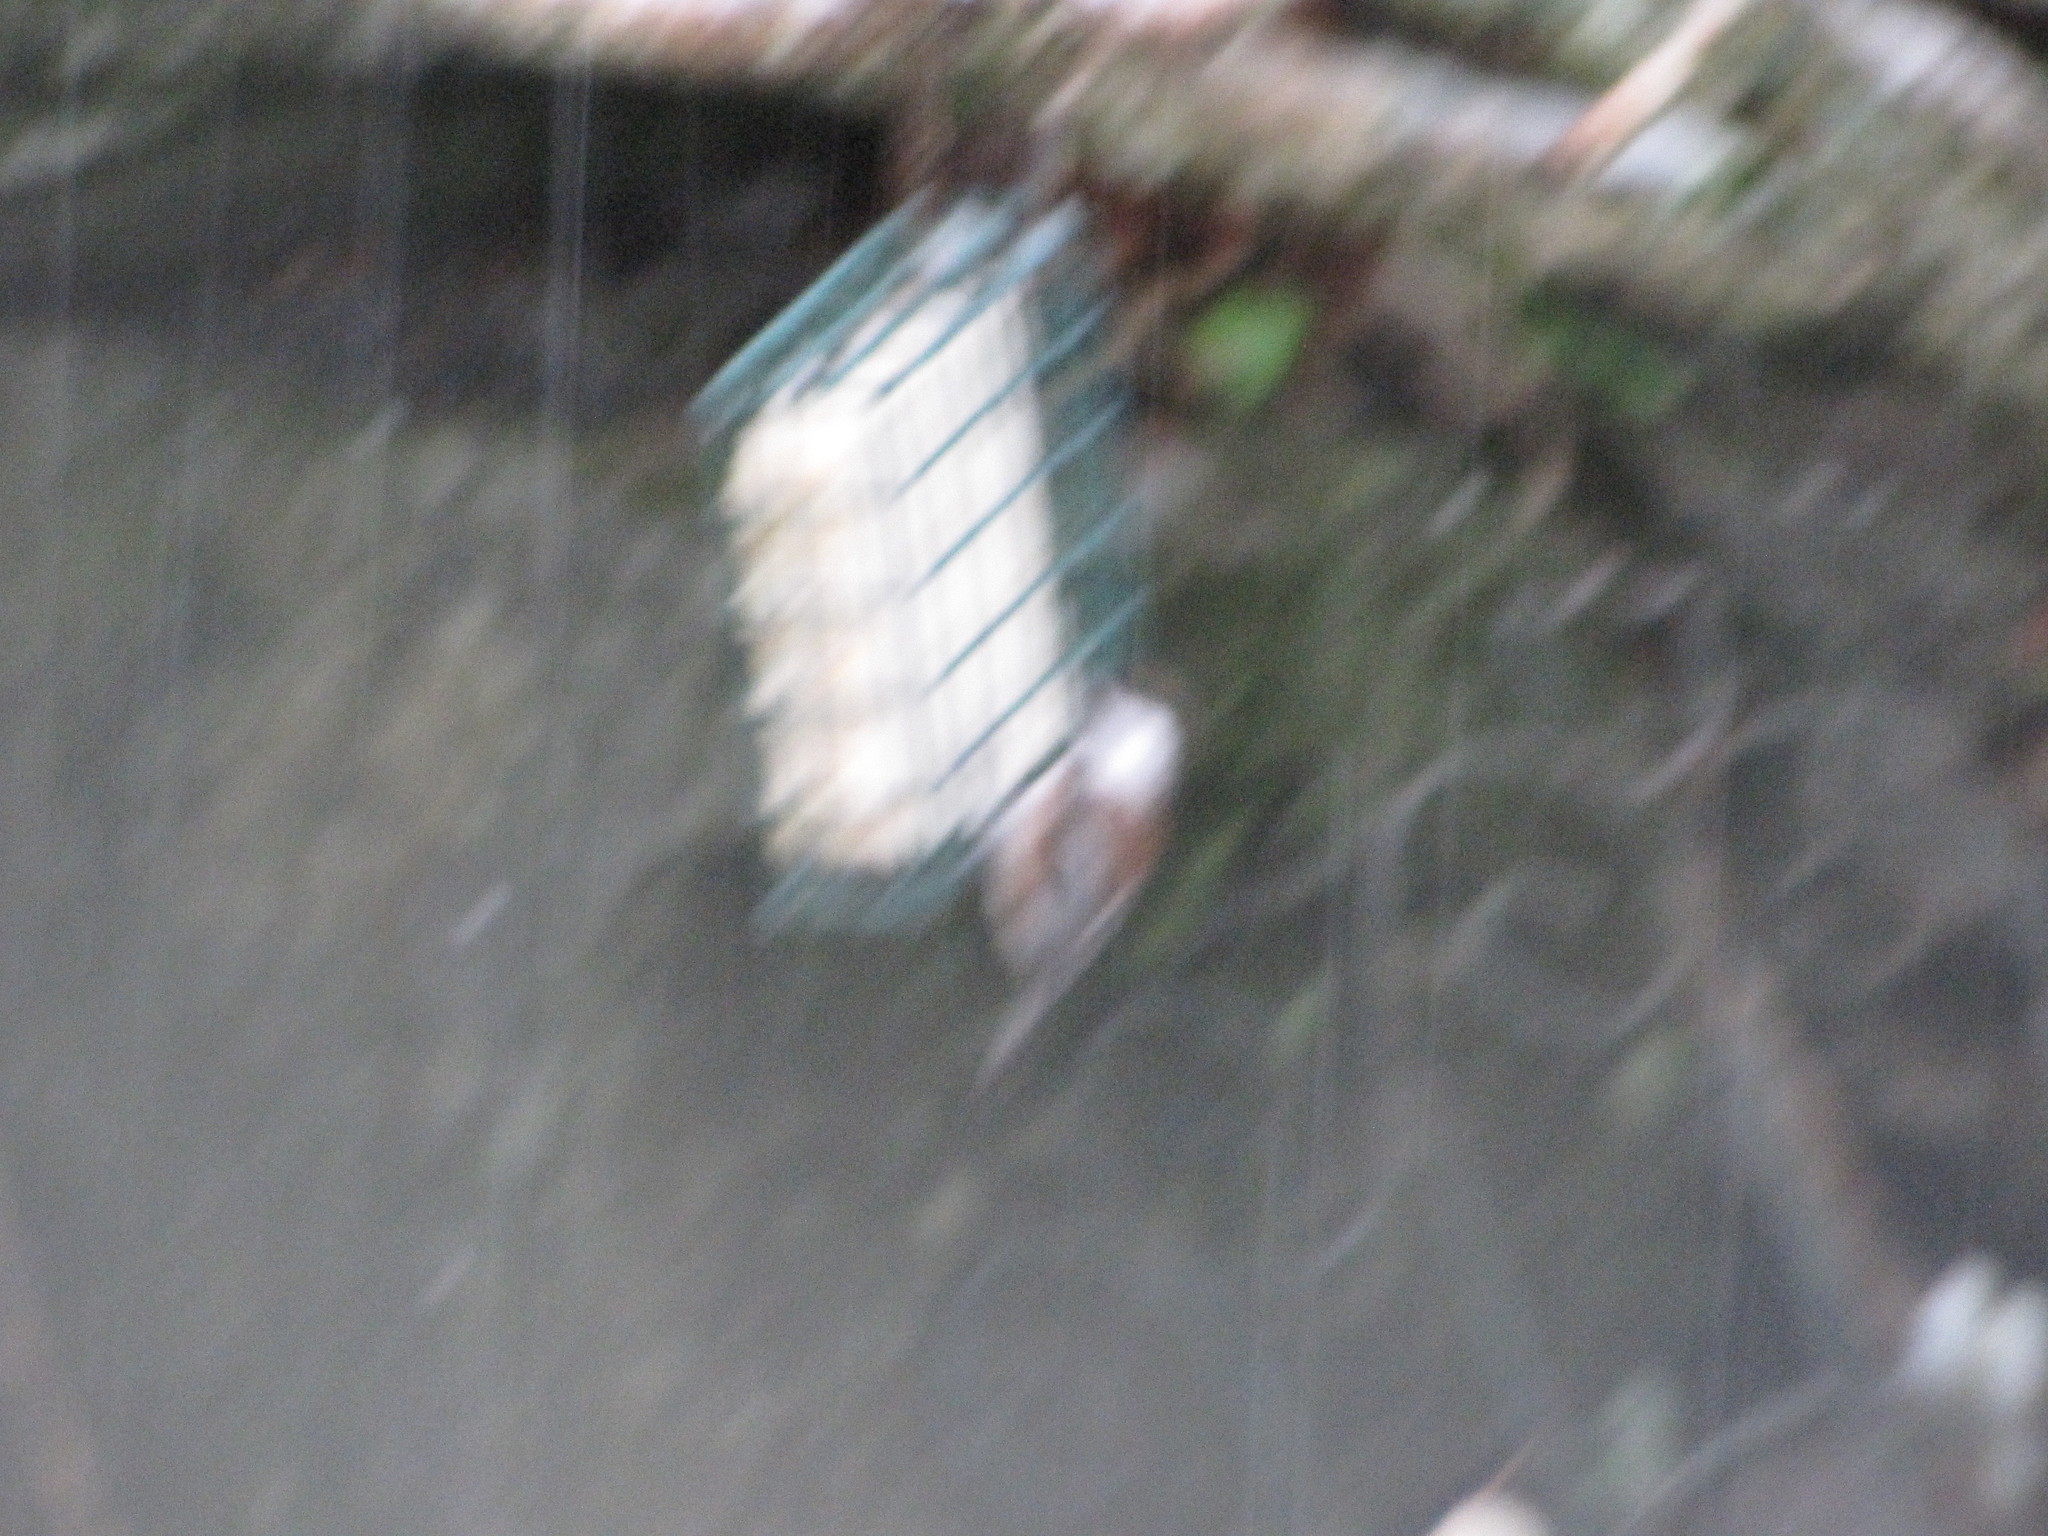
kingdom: Animalia
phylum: Chordata
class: Aves
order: Passeriformes
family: Paridae
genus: Poecile
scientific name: Poecile rufescens
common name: Chestnut-backed chickadee
